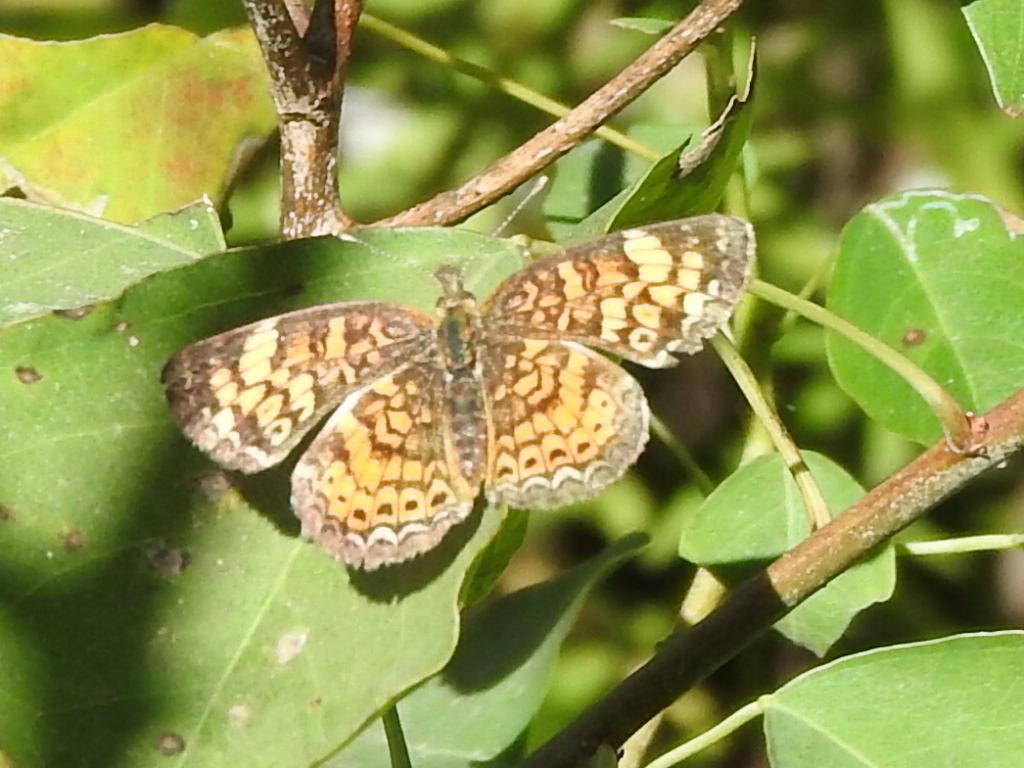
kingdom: Animalia
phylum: Arthropoda
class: Insecta
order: Lepidoptera
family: Nymphalidae
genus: Phyciodes
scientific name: Phyciodes tharos
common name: Pearl crescent
